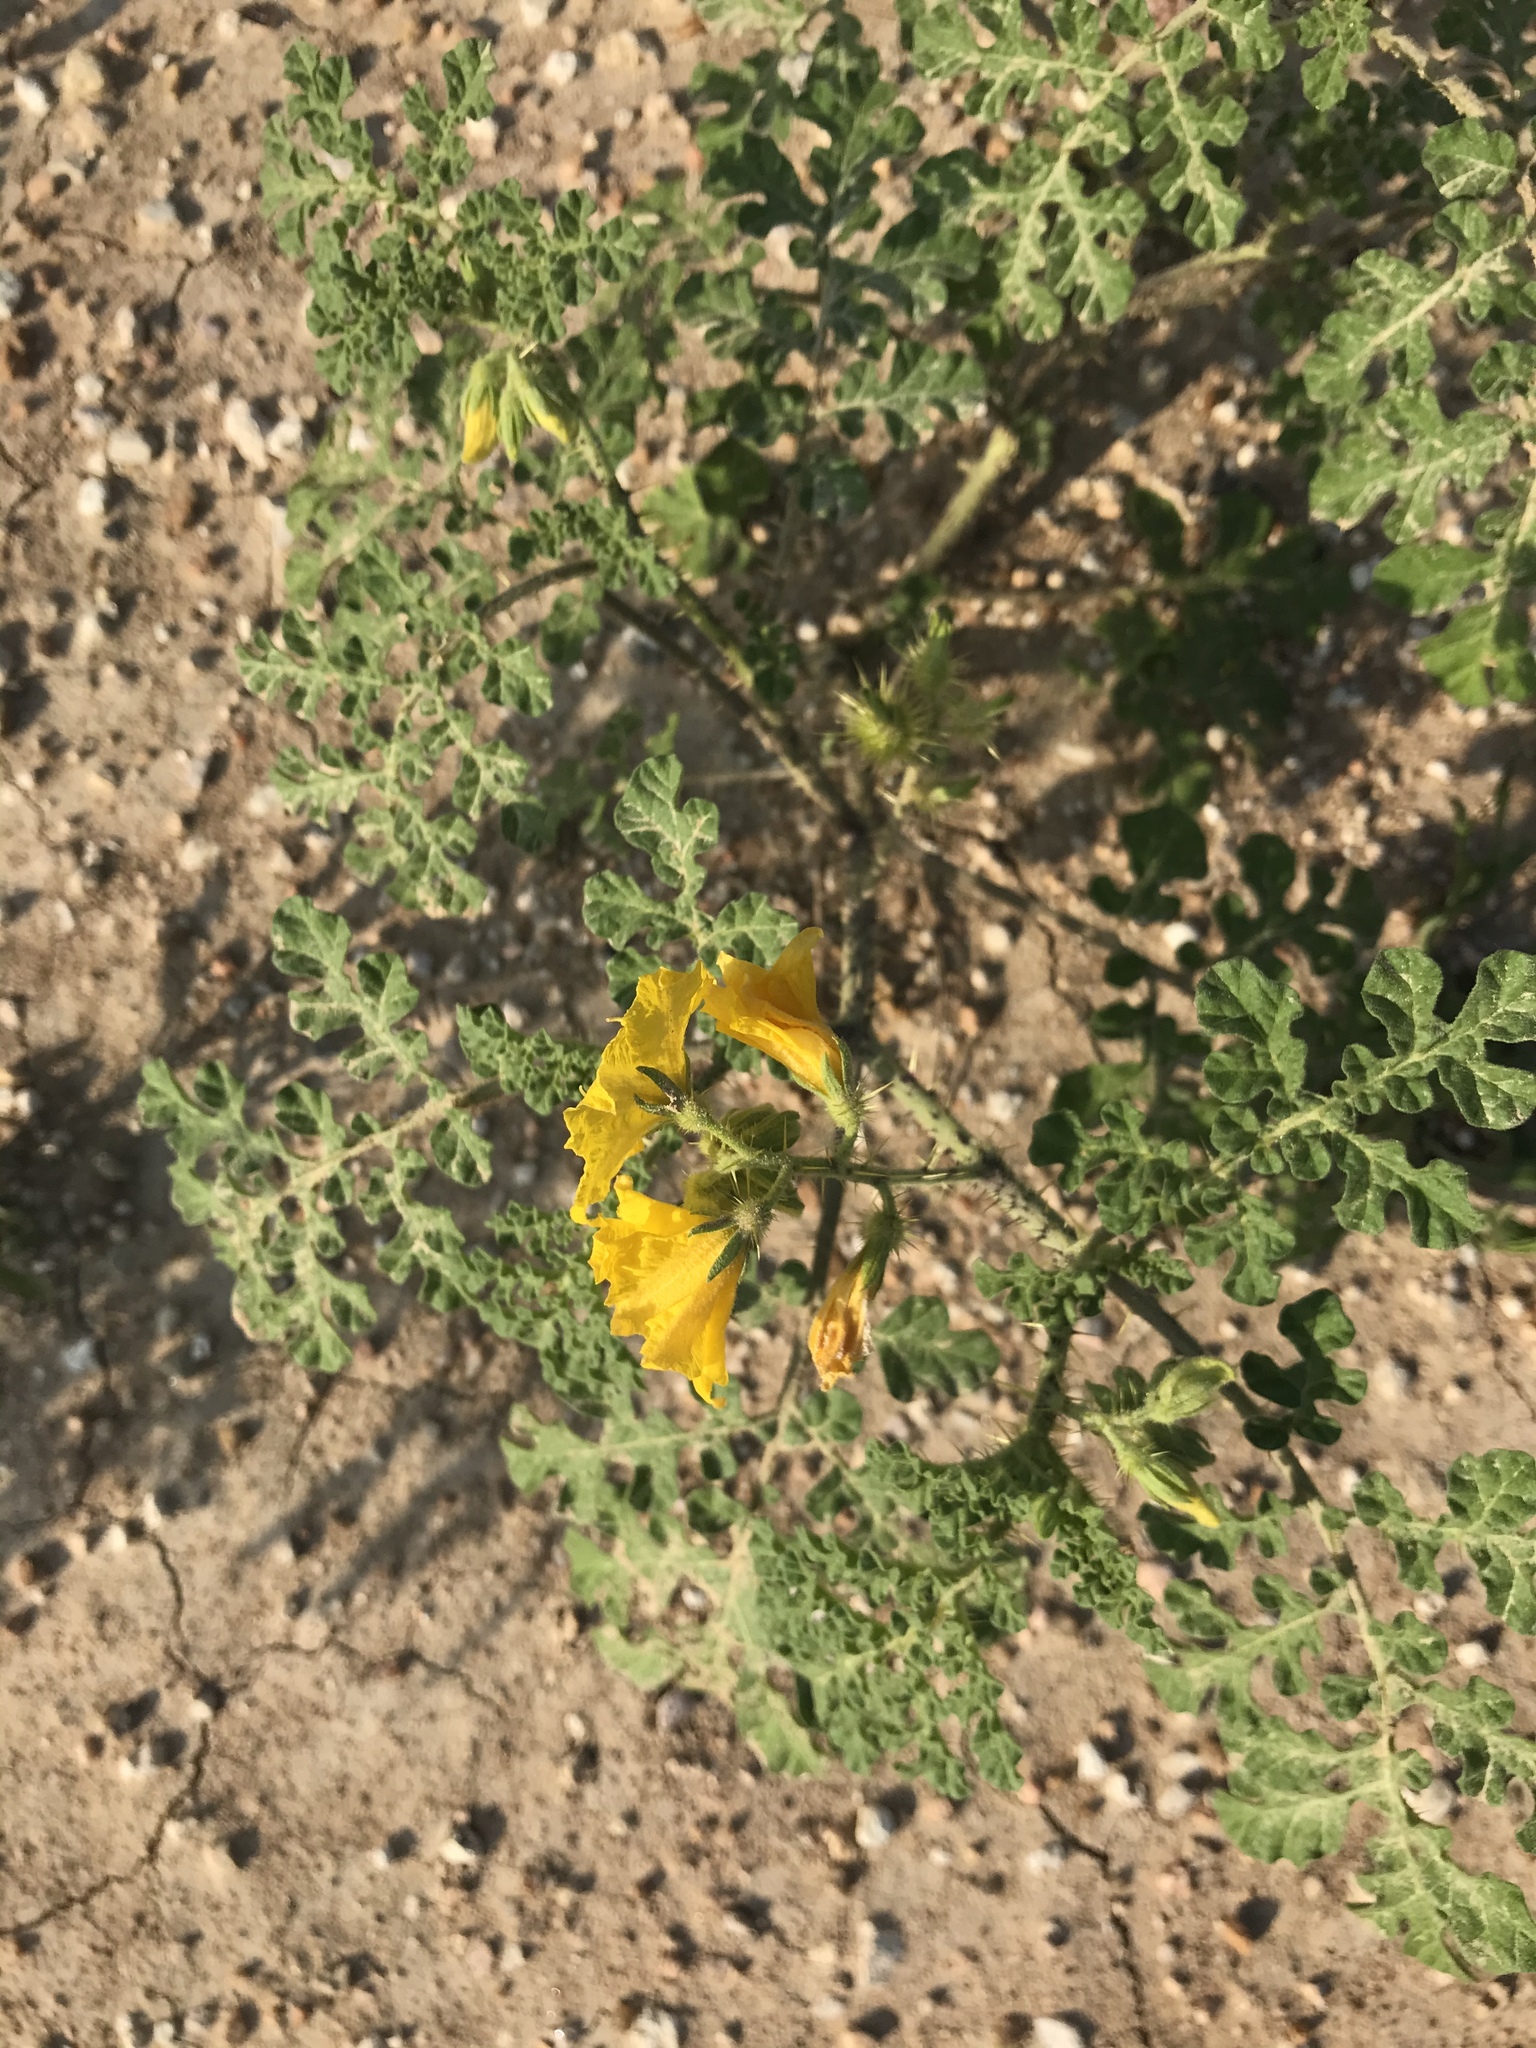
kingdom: Plantae
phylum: Tracheophyta
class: Magnoliopsida
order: Solanales
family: Solanaceae
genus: Solanum
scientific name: Solanum angustifolium
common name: Buffalobur nightshade
